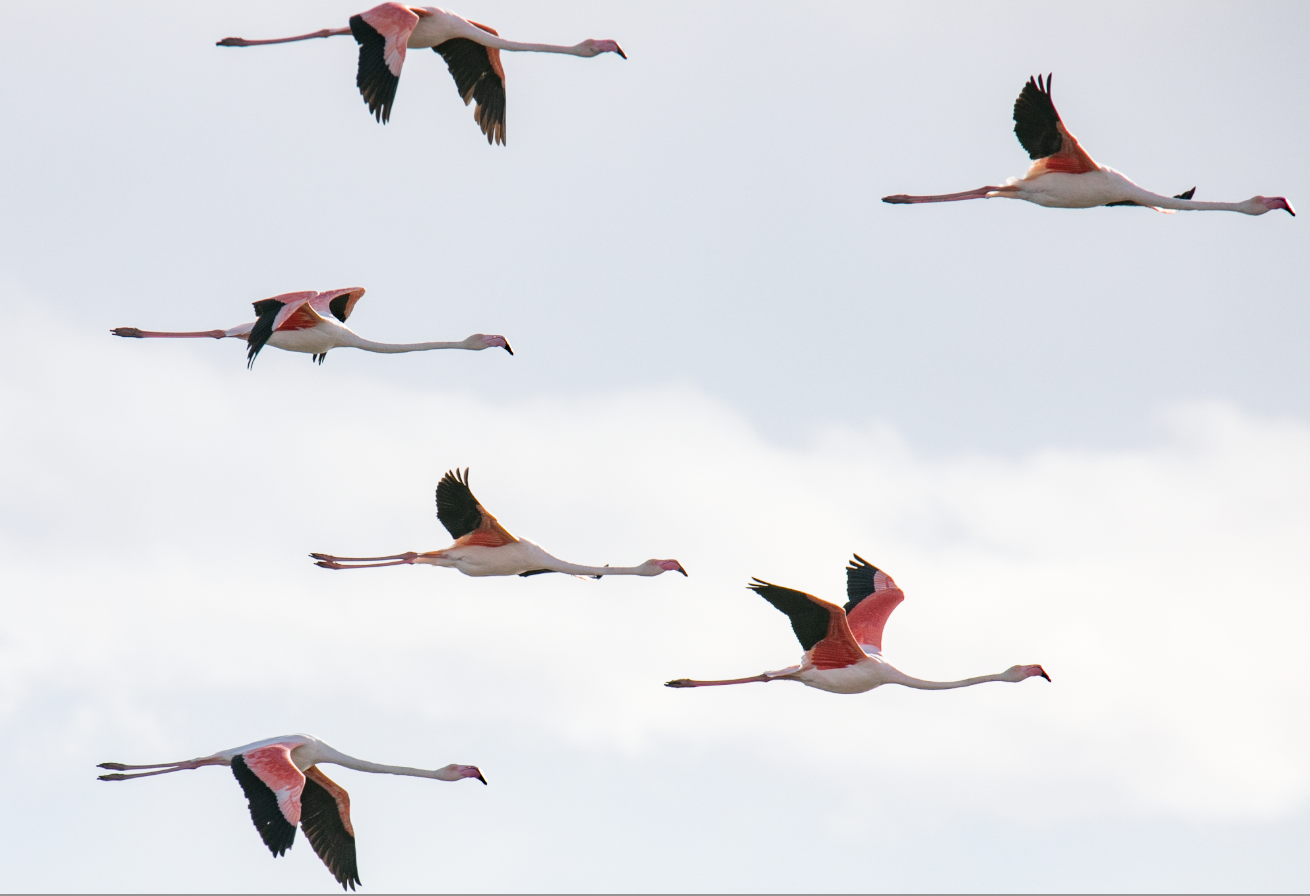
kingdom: Animalia
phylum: Chordata
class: Aves
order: Phoenicopteriformes
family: Phoenicopteridae
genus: Phoenicopterus
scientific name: Phoenicopterus roseus
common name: Greater flamingo
